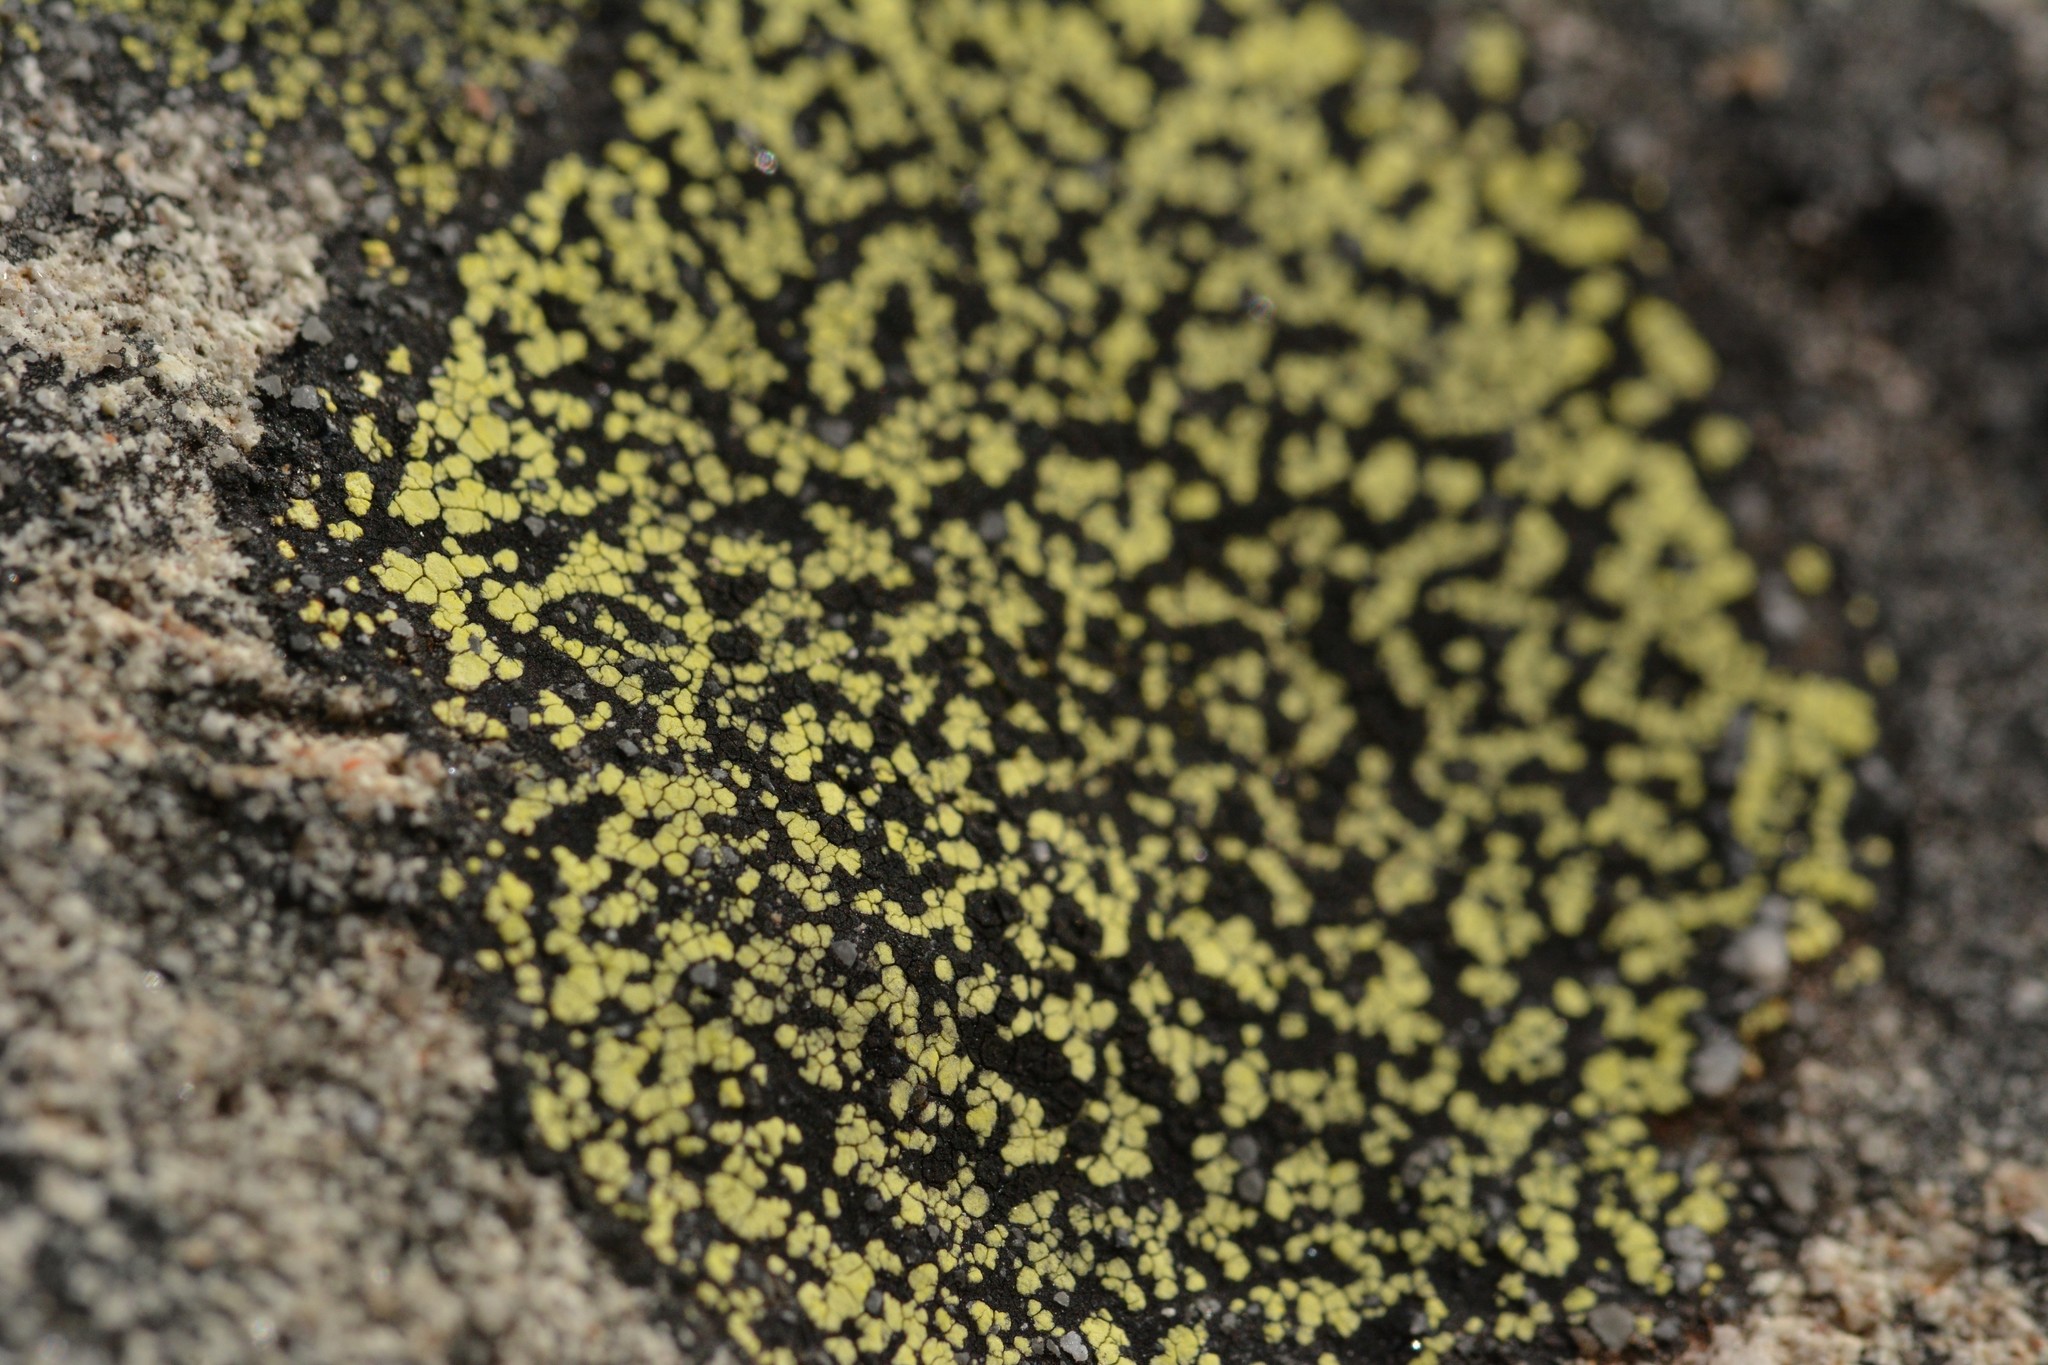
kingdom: Fungi
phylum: Ascomycota
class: Lecanoromycetes
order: Rhizocarpales
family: Rhizocarpaceae
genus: Rhizocarpon
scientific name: Rhizocarpon geographicum
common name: Yellow map lichen
